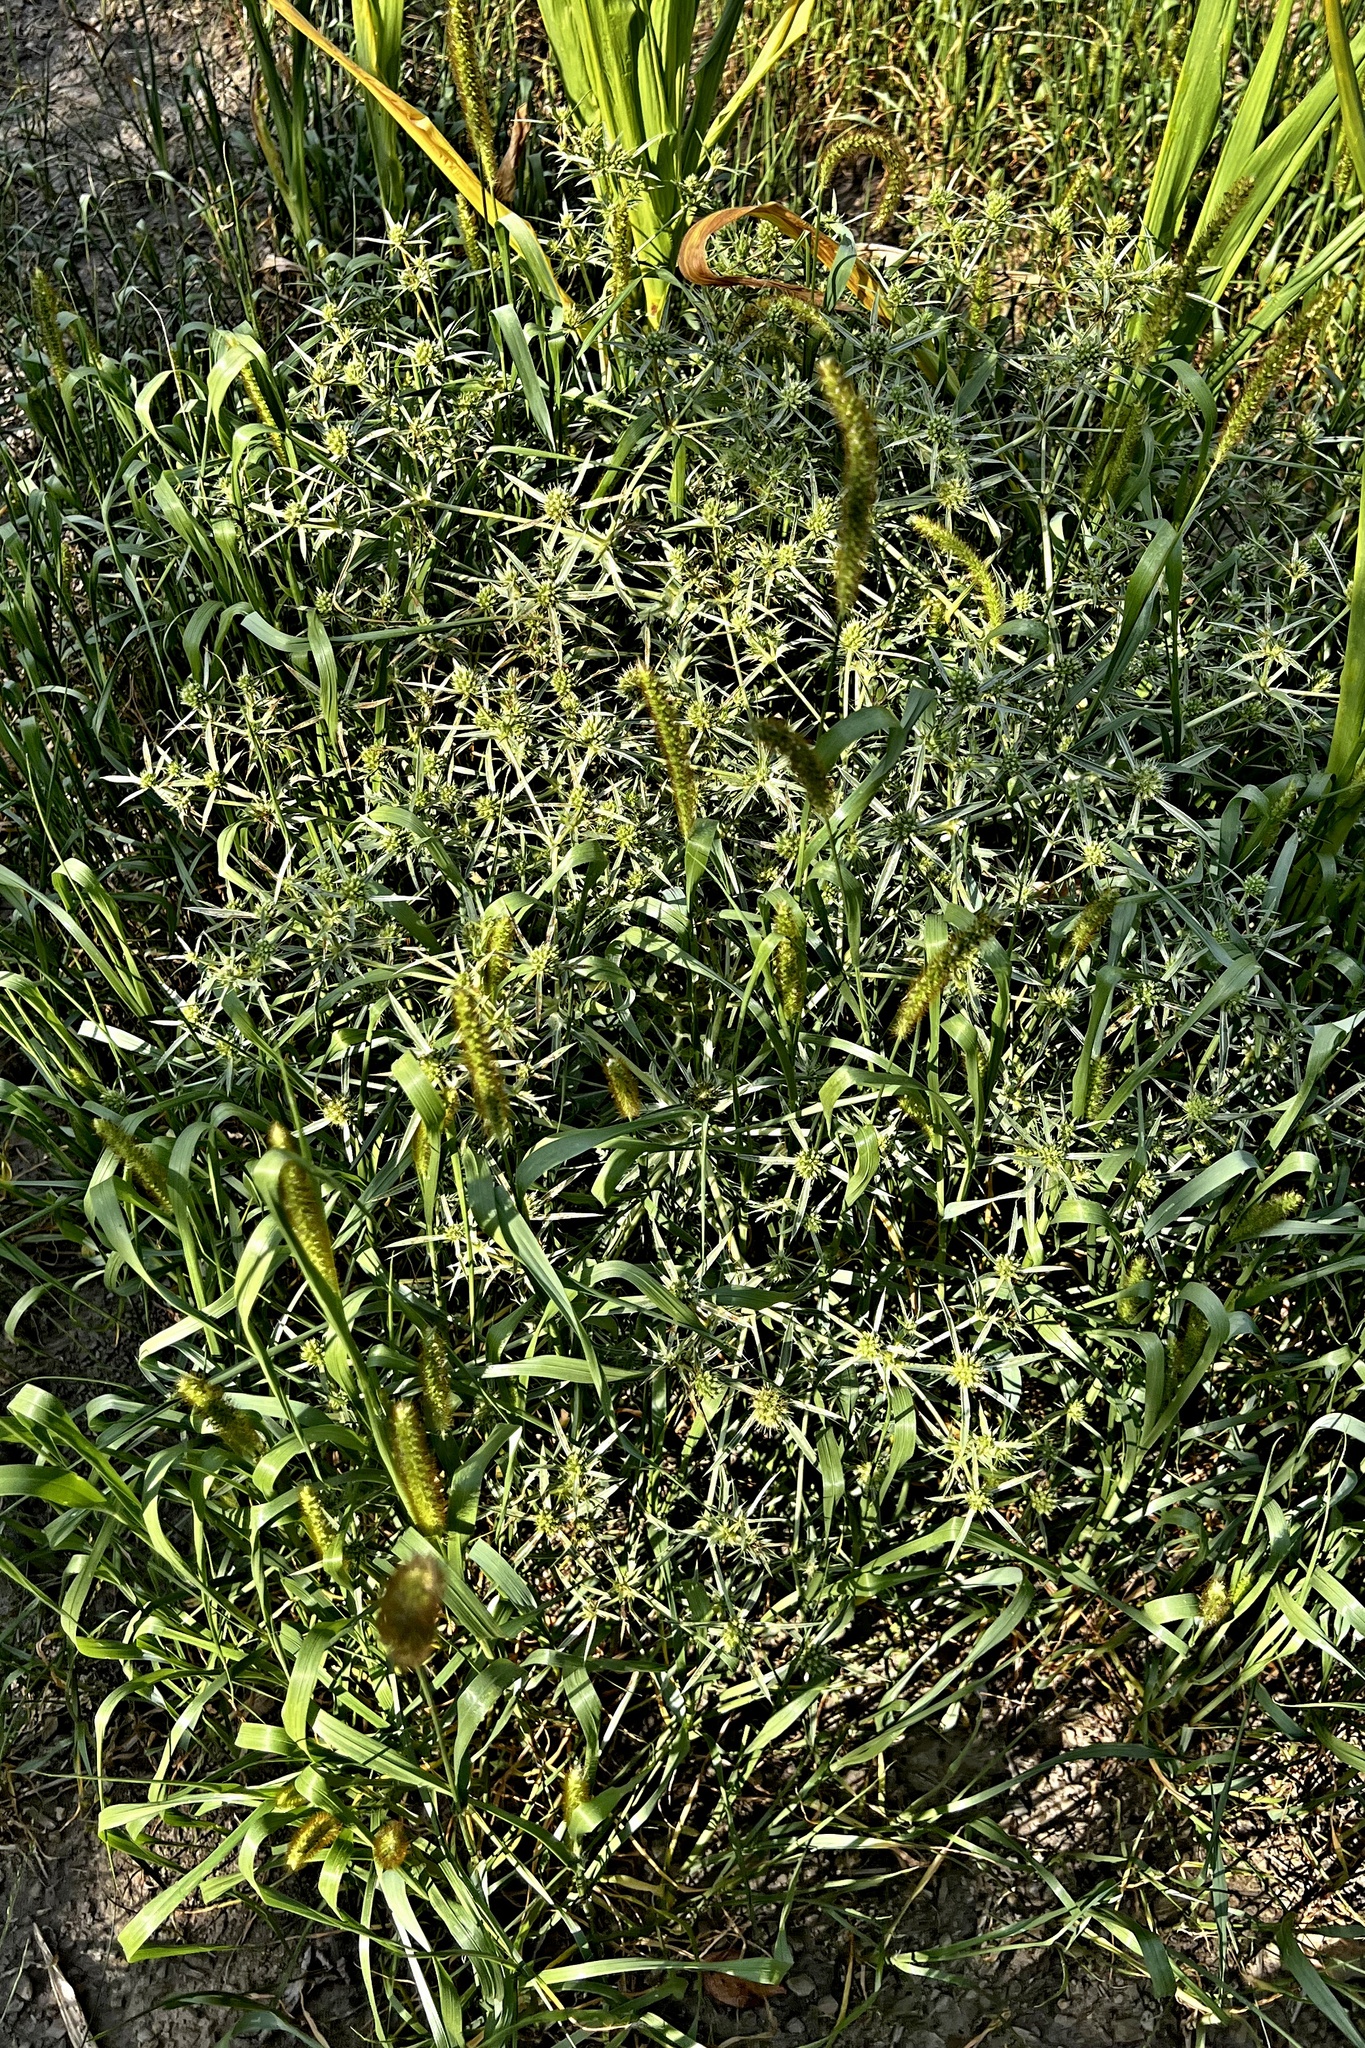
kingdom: Plantae
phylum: Tracheophyta
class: Magnoliopsida
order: Apiales
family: Apiaceae
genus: Eryngium
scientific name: Eryngium campestre
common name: Field eryngo
